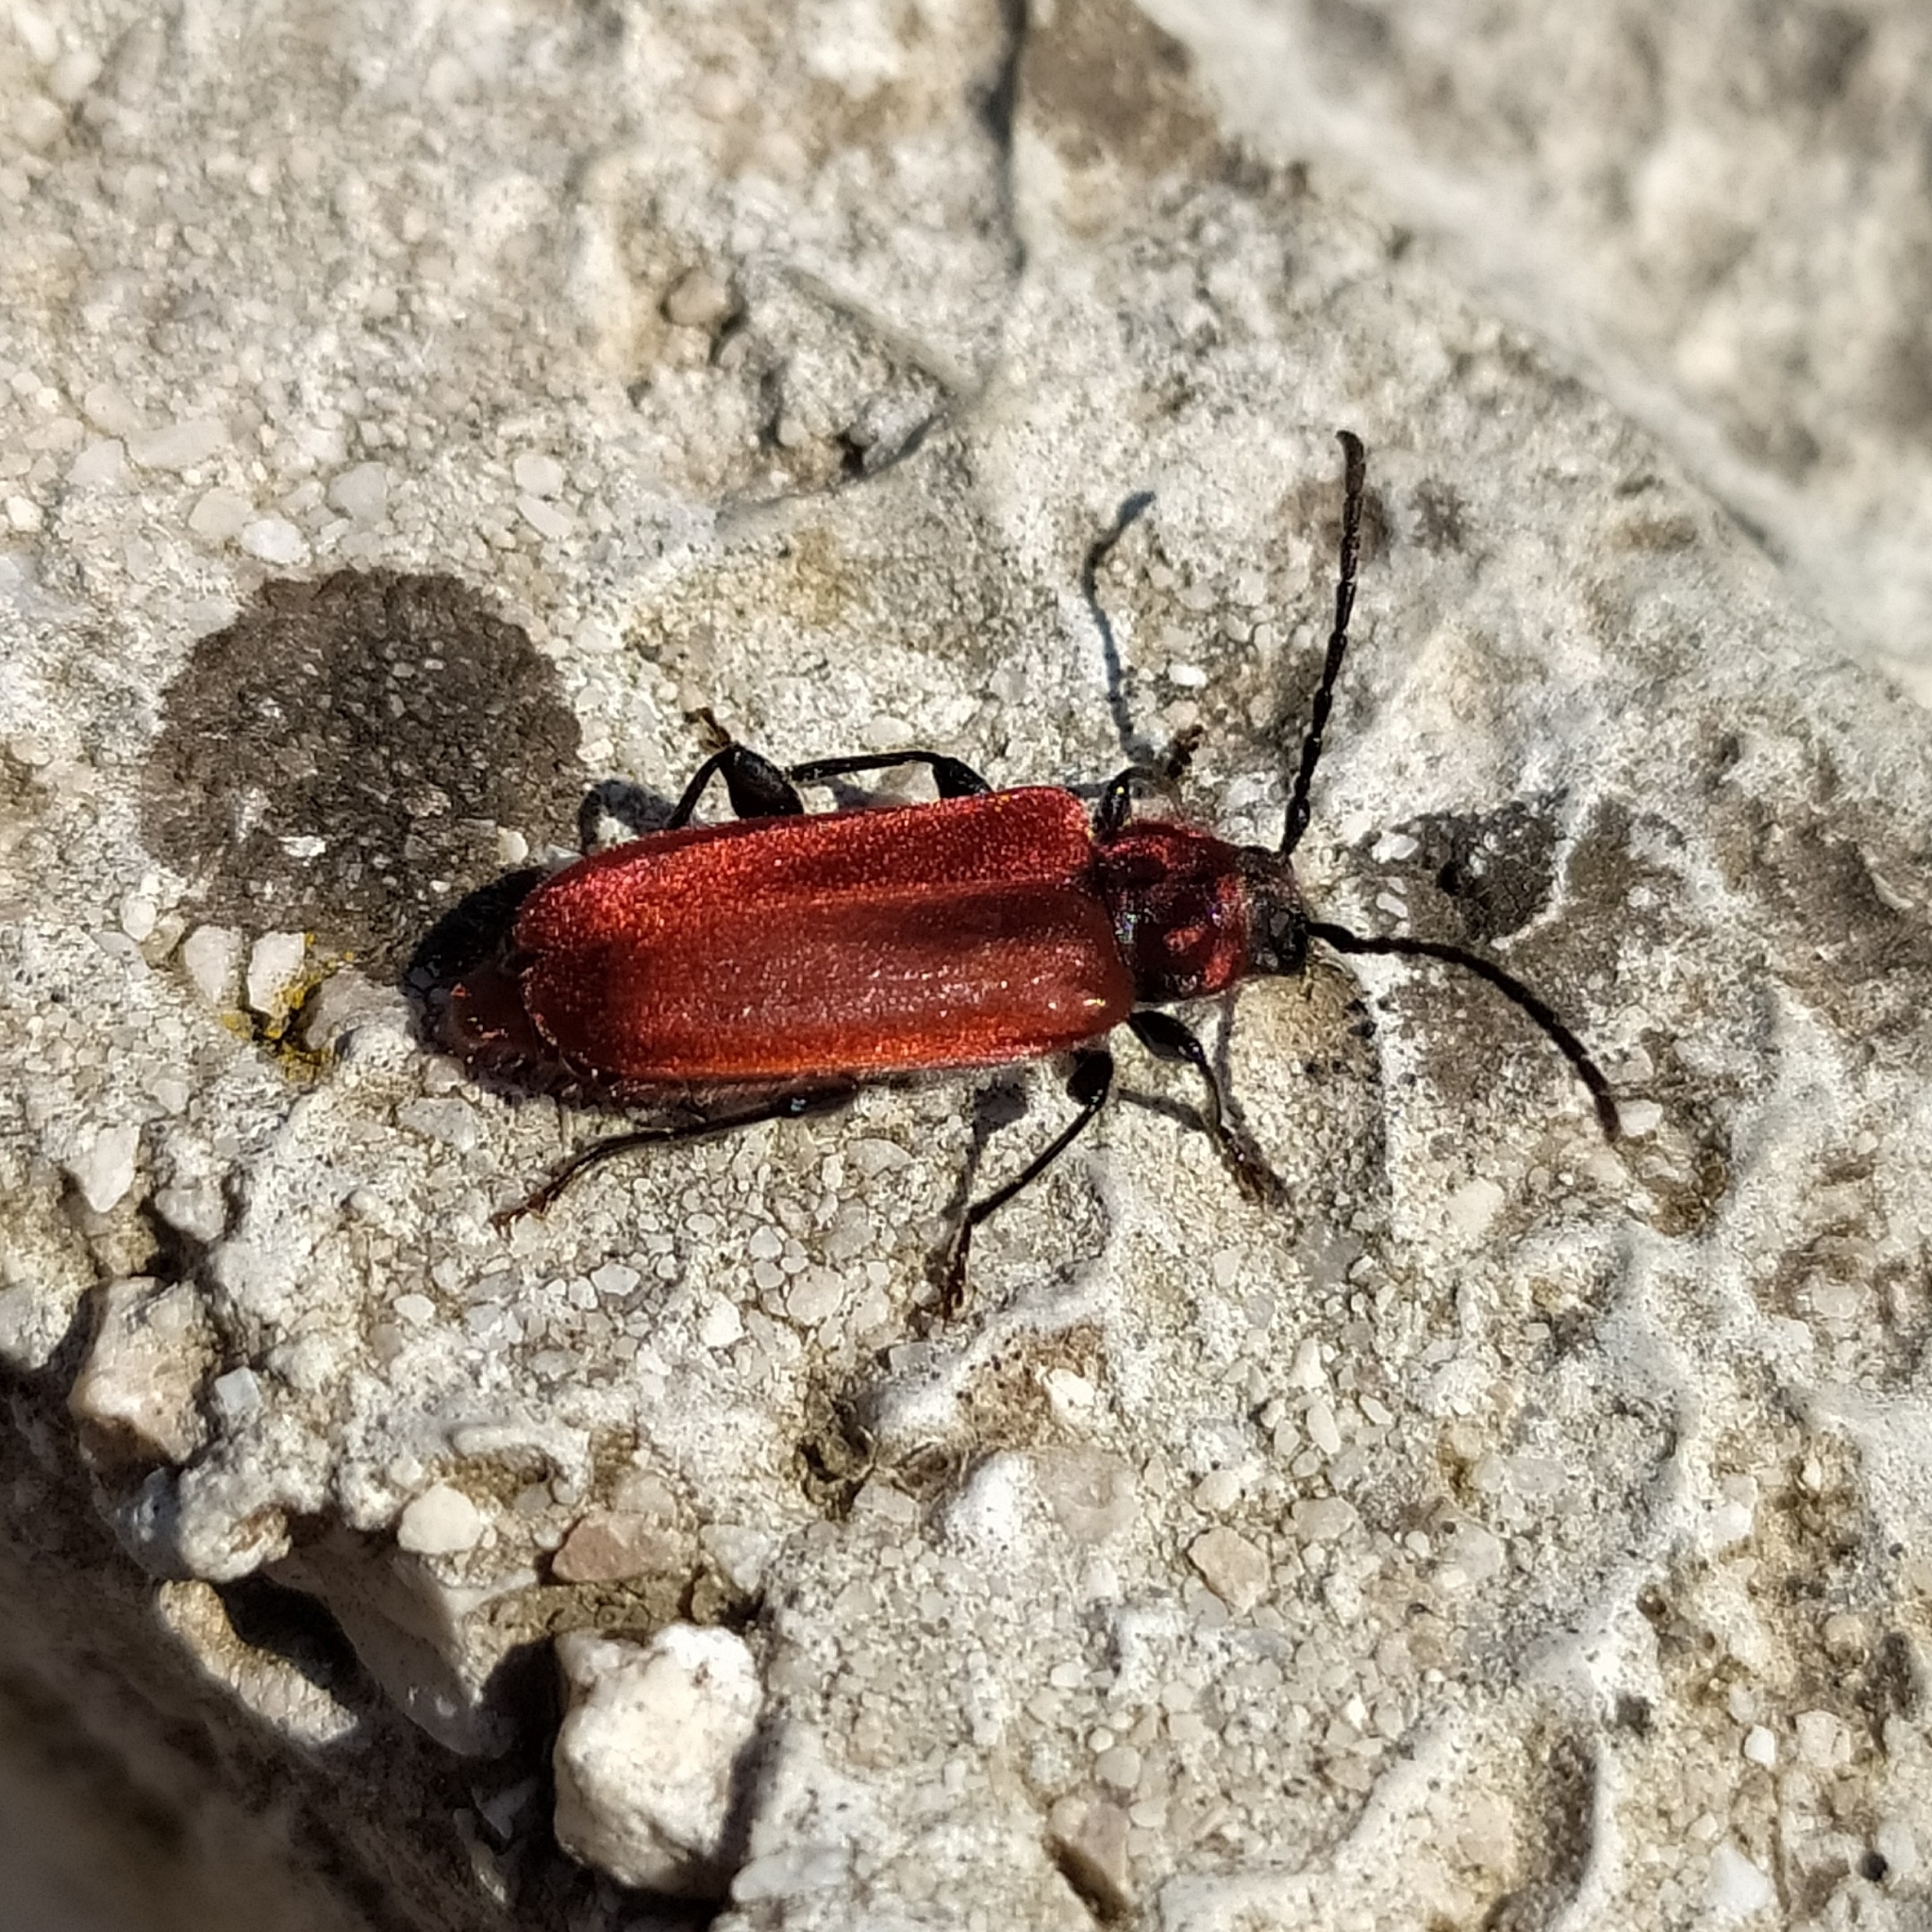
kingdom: Animalia
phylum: Arthropoda
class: Insecta
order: Coleoptera
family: Cerambycidae
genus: Pyrrhidium
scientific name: Pyrrhidium sanguineum
